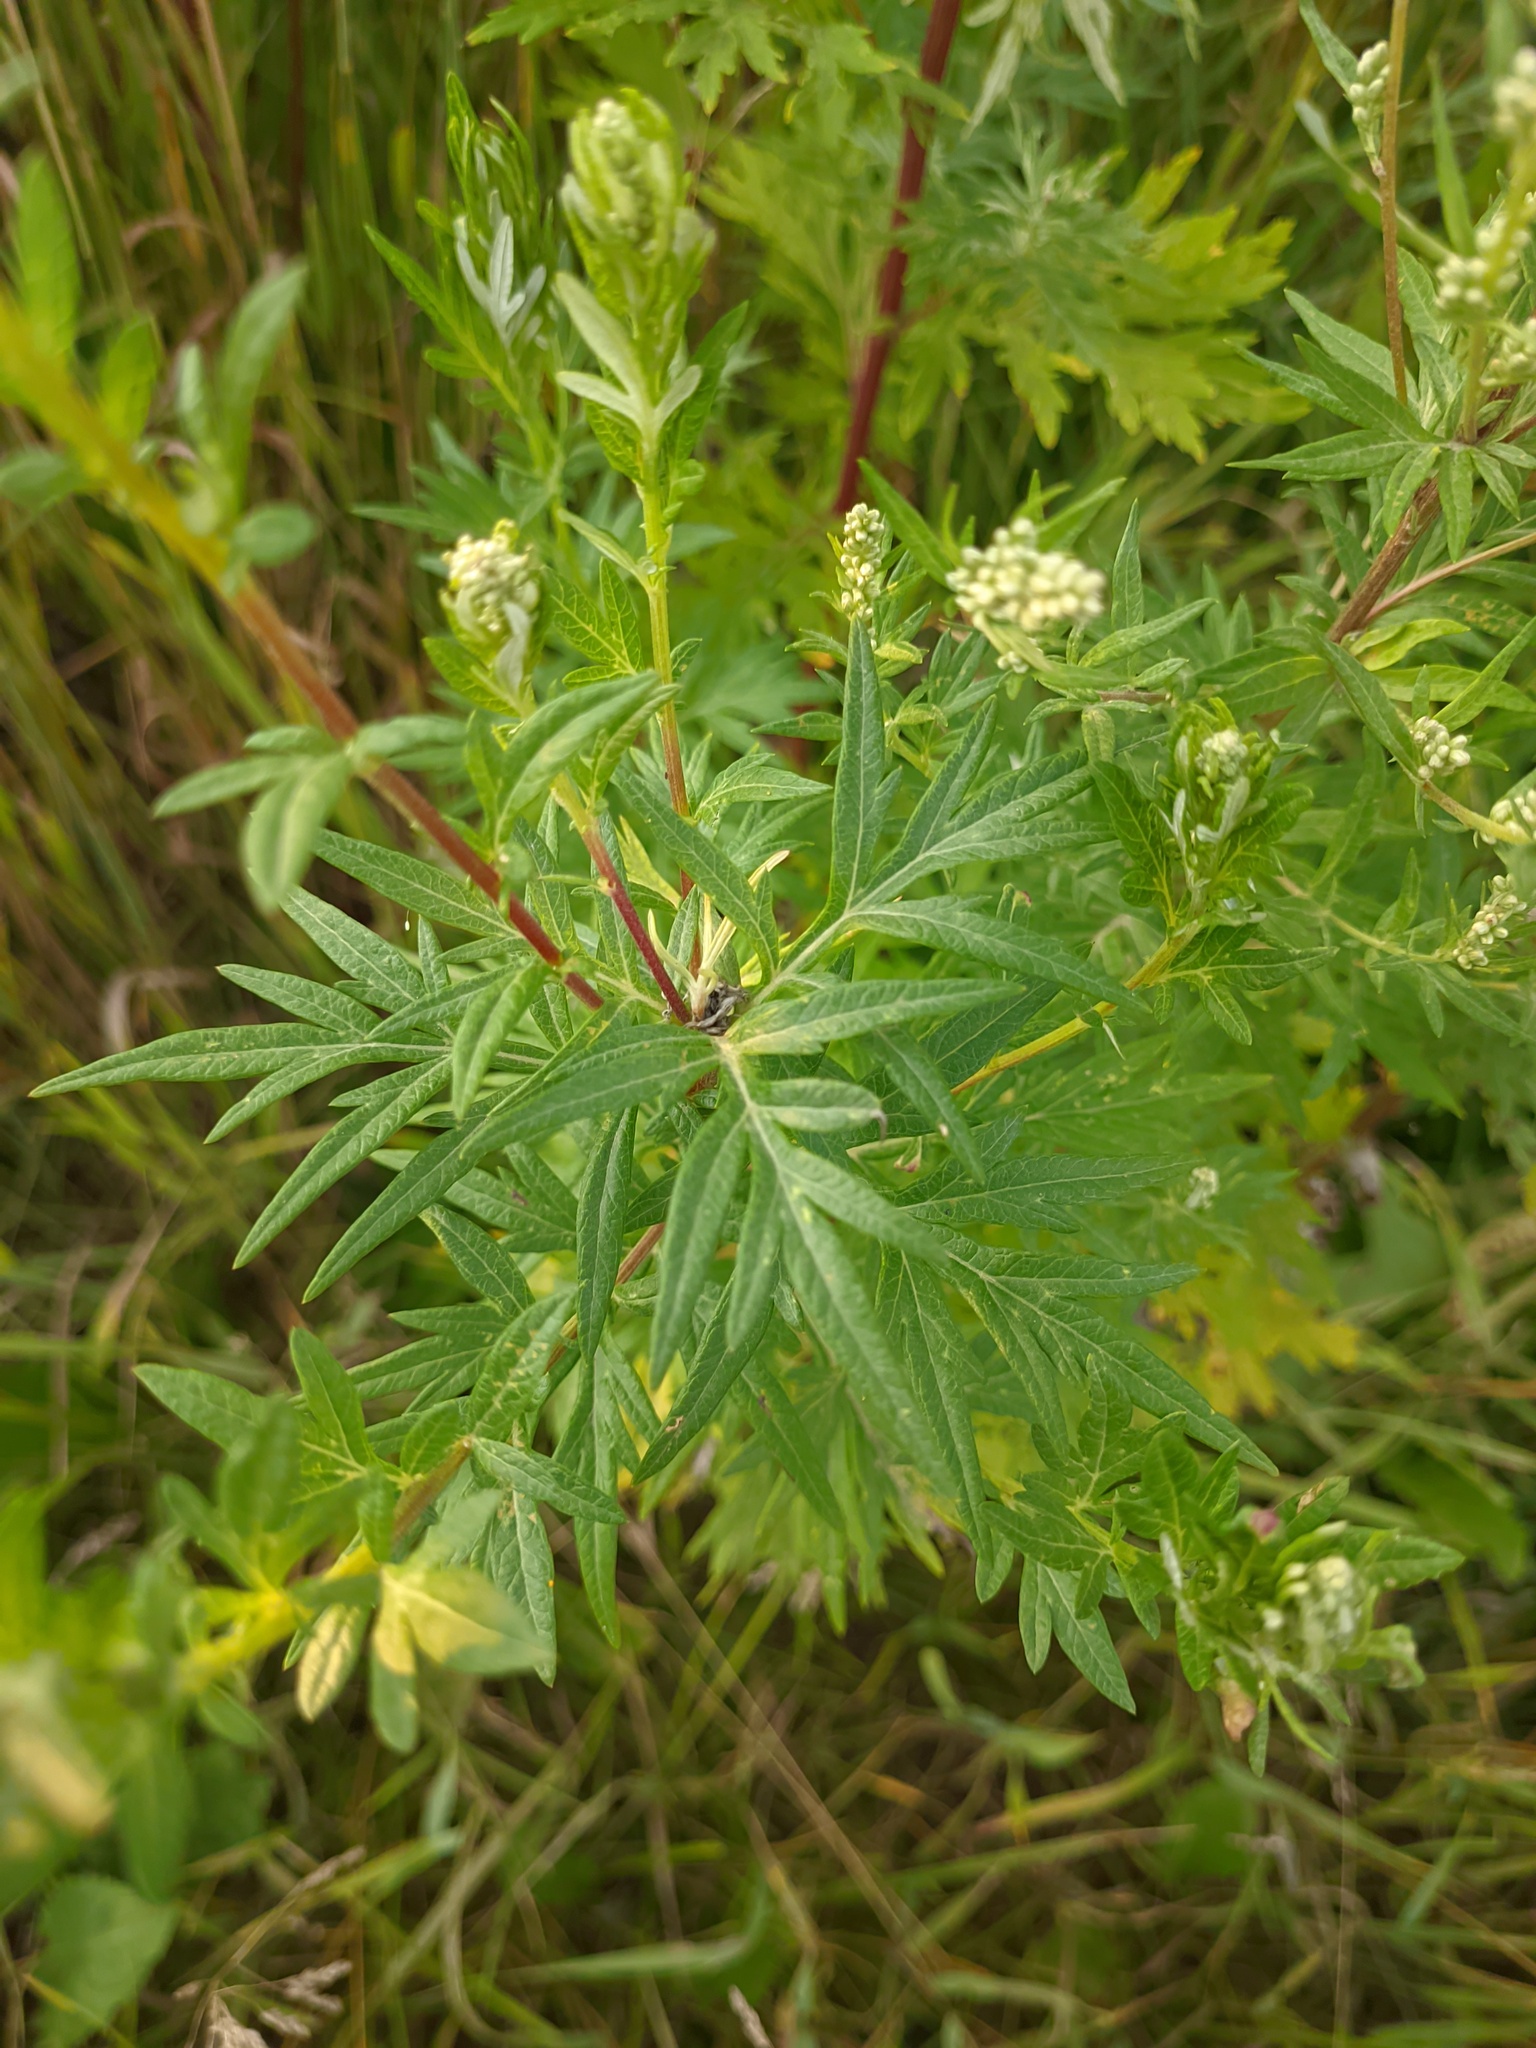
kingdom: Plantae
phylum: Tracheophyta
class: Magnoliopsida
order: Asterales
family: Asteraceae
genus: Artemisia
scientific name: Artemisia vulgaris
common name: Mugwort
